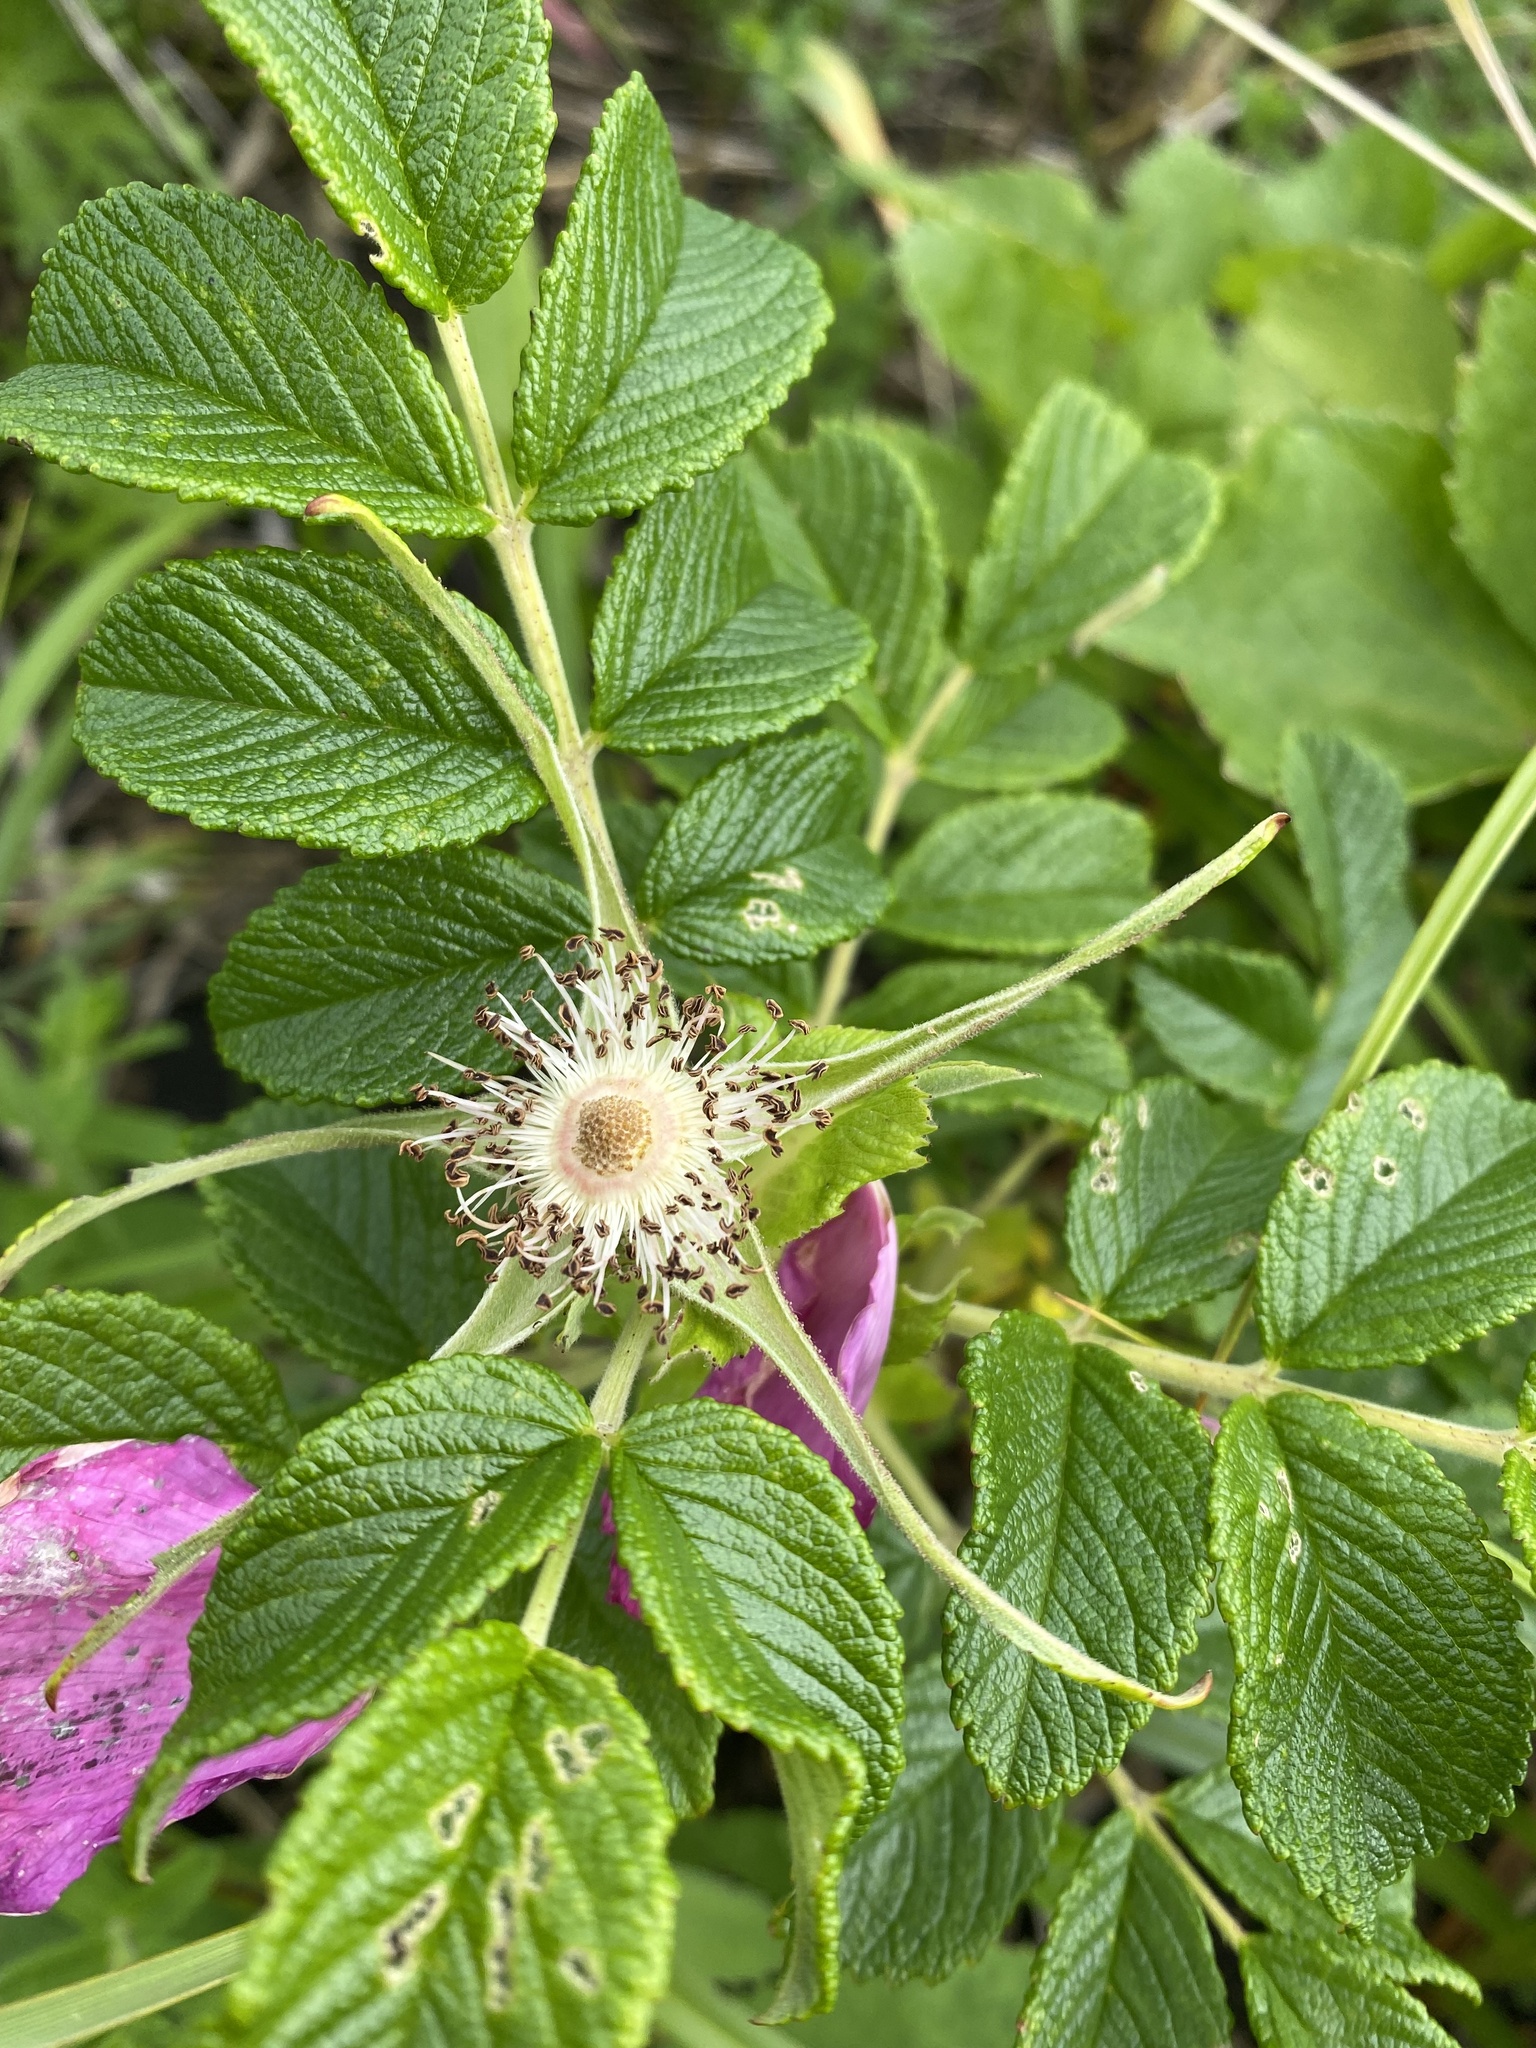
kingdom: Plantae
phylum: Tracheophyta
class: Magnoliopsida
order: Rosales
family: Rosaceae
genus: Rosa
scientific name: Rosa rugosa
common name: Japanese rose
